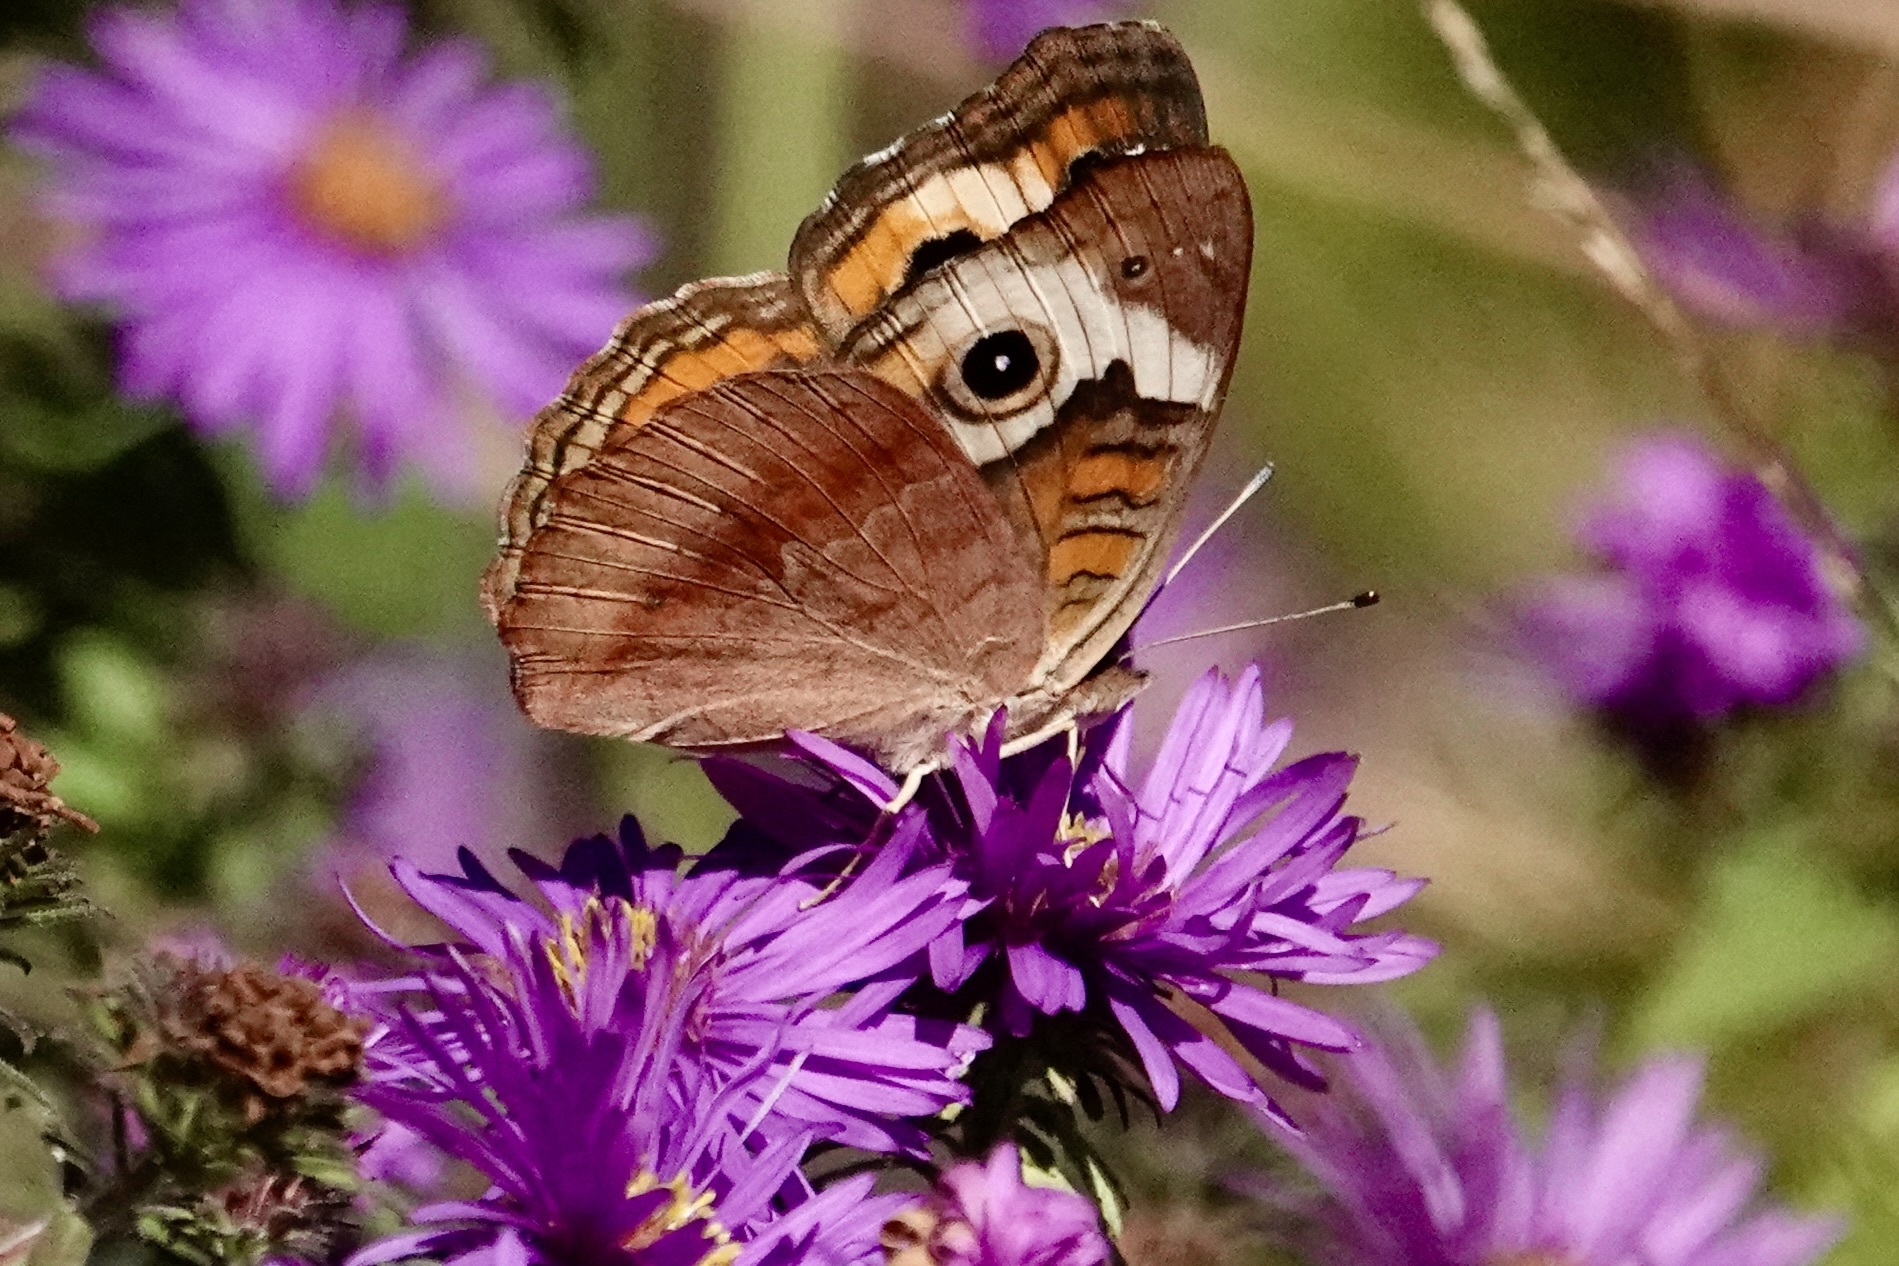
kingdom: Animalia
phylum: Arthropoda
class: Insecta
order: Lepidoptera
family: Nymphalidae
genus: Junonia
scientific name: Junonia coenia
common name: Common buckeye
